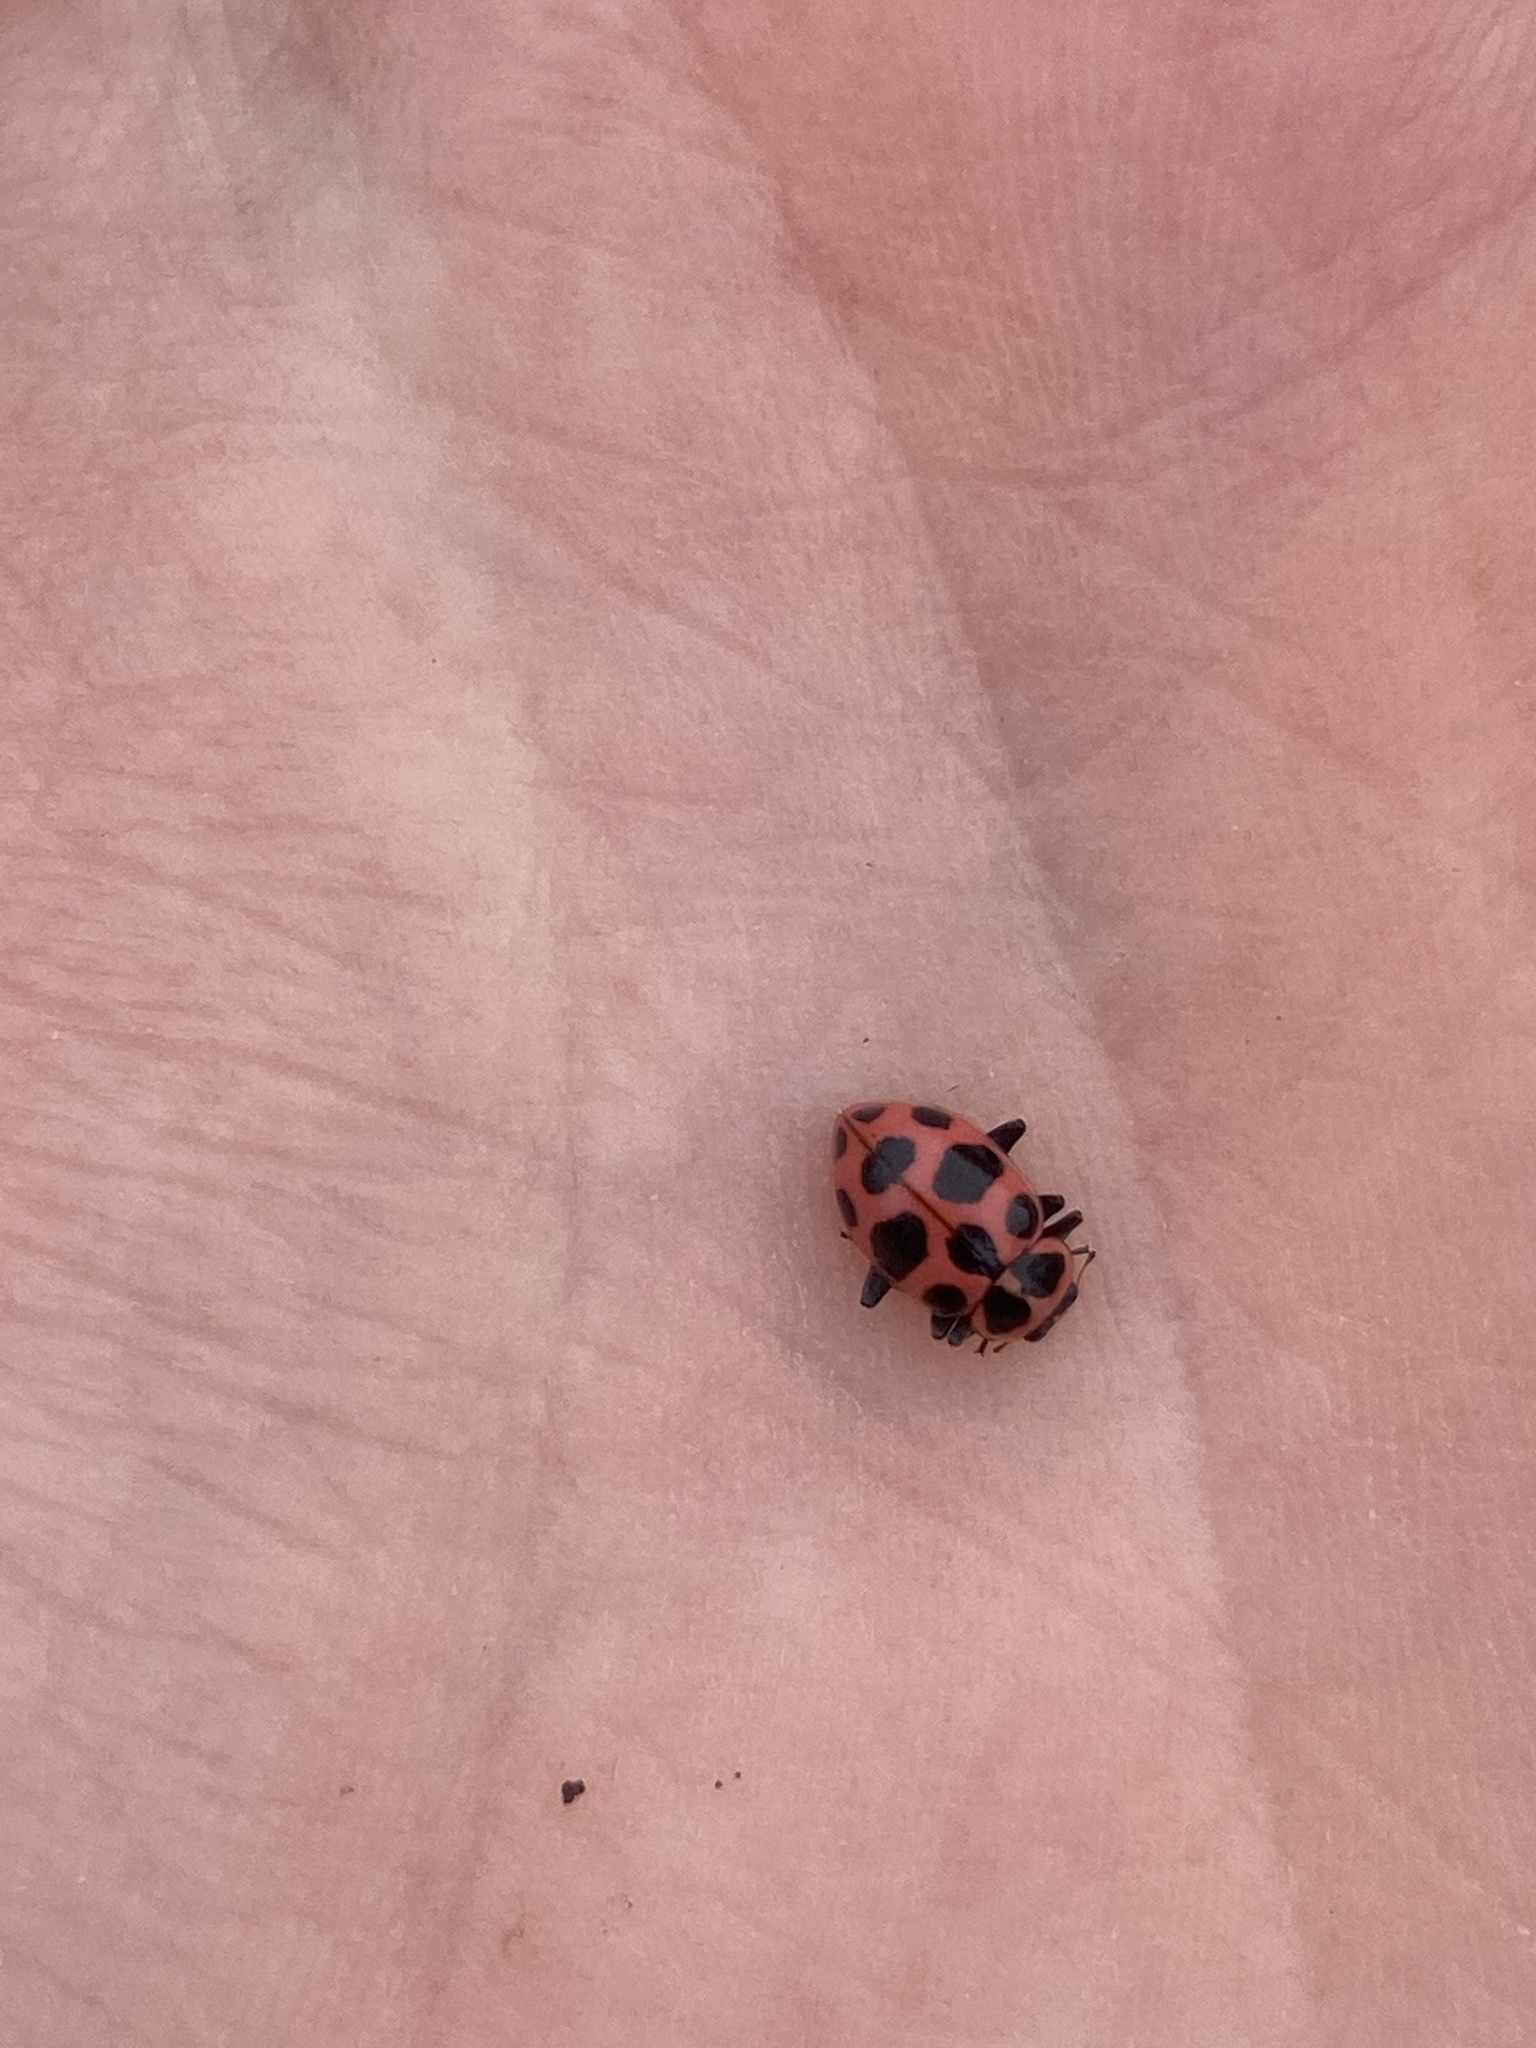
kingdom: Animalia
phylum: Arthropoda
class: Insecta
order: Coleoptera
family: Coccinellidae
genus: Coleomegilla
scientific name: Coleomegilla maculata
